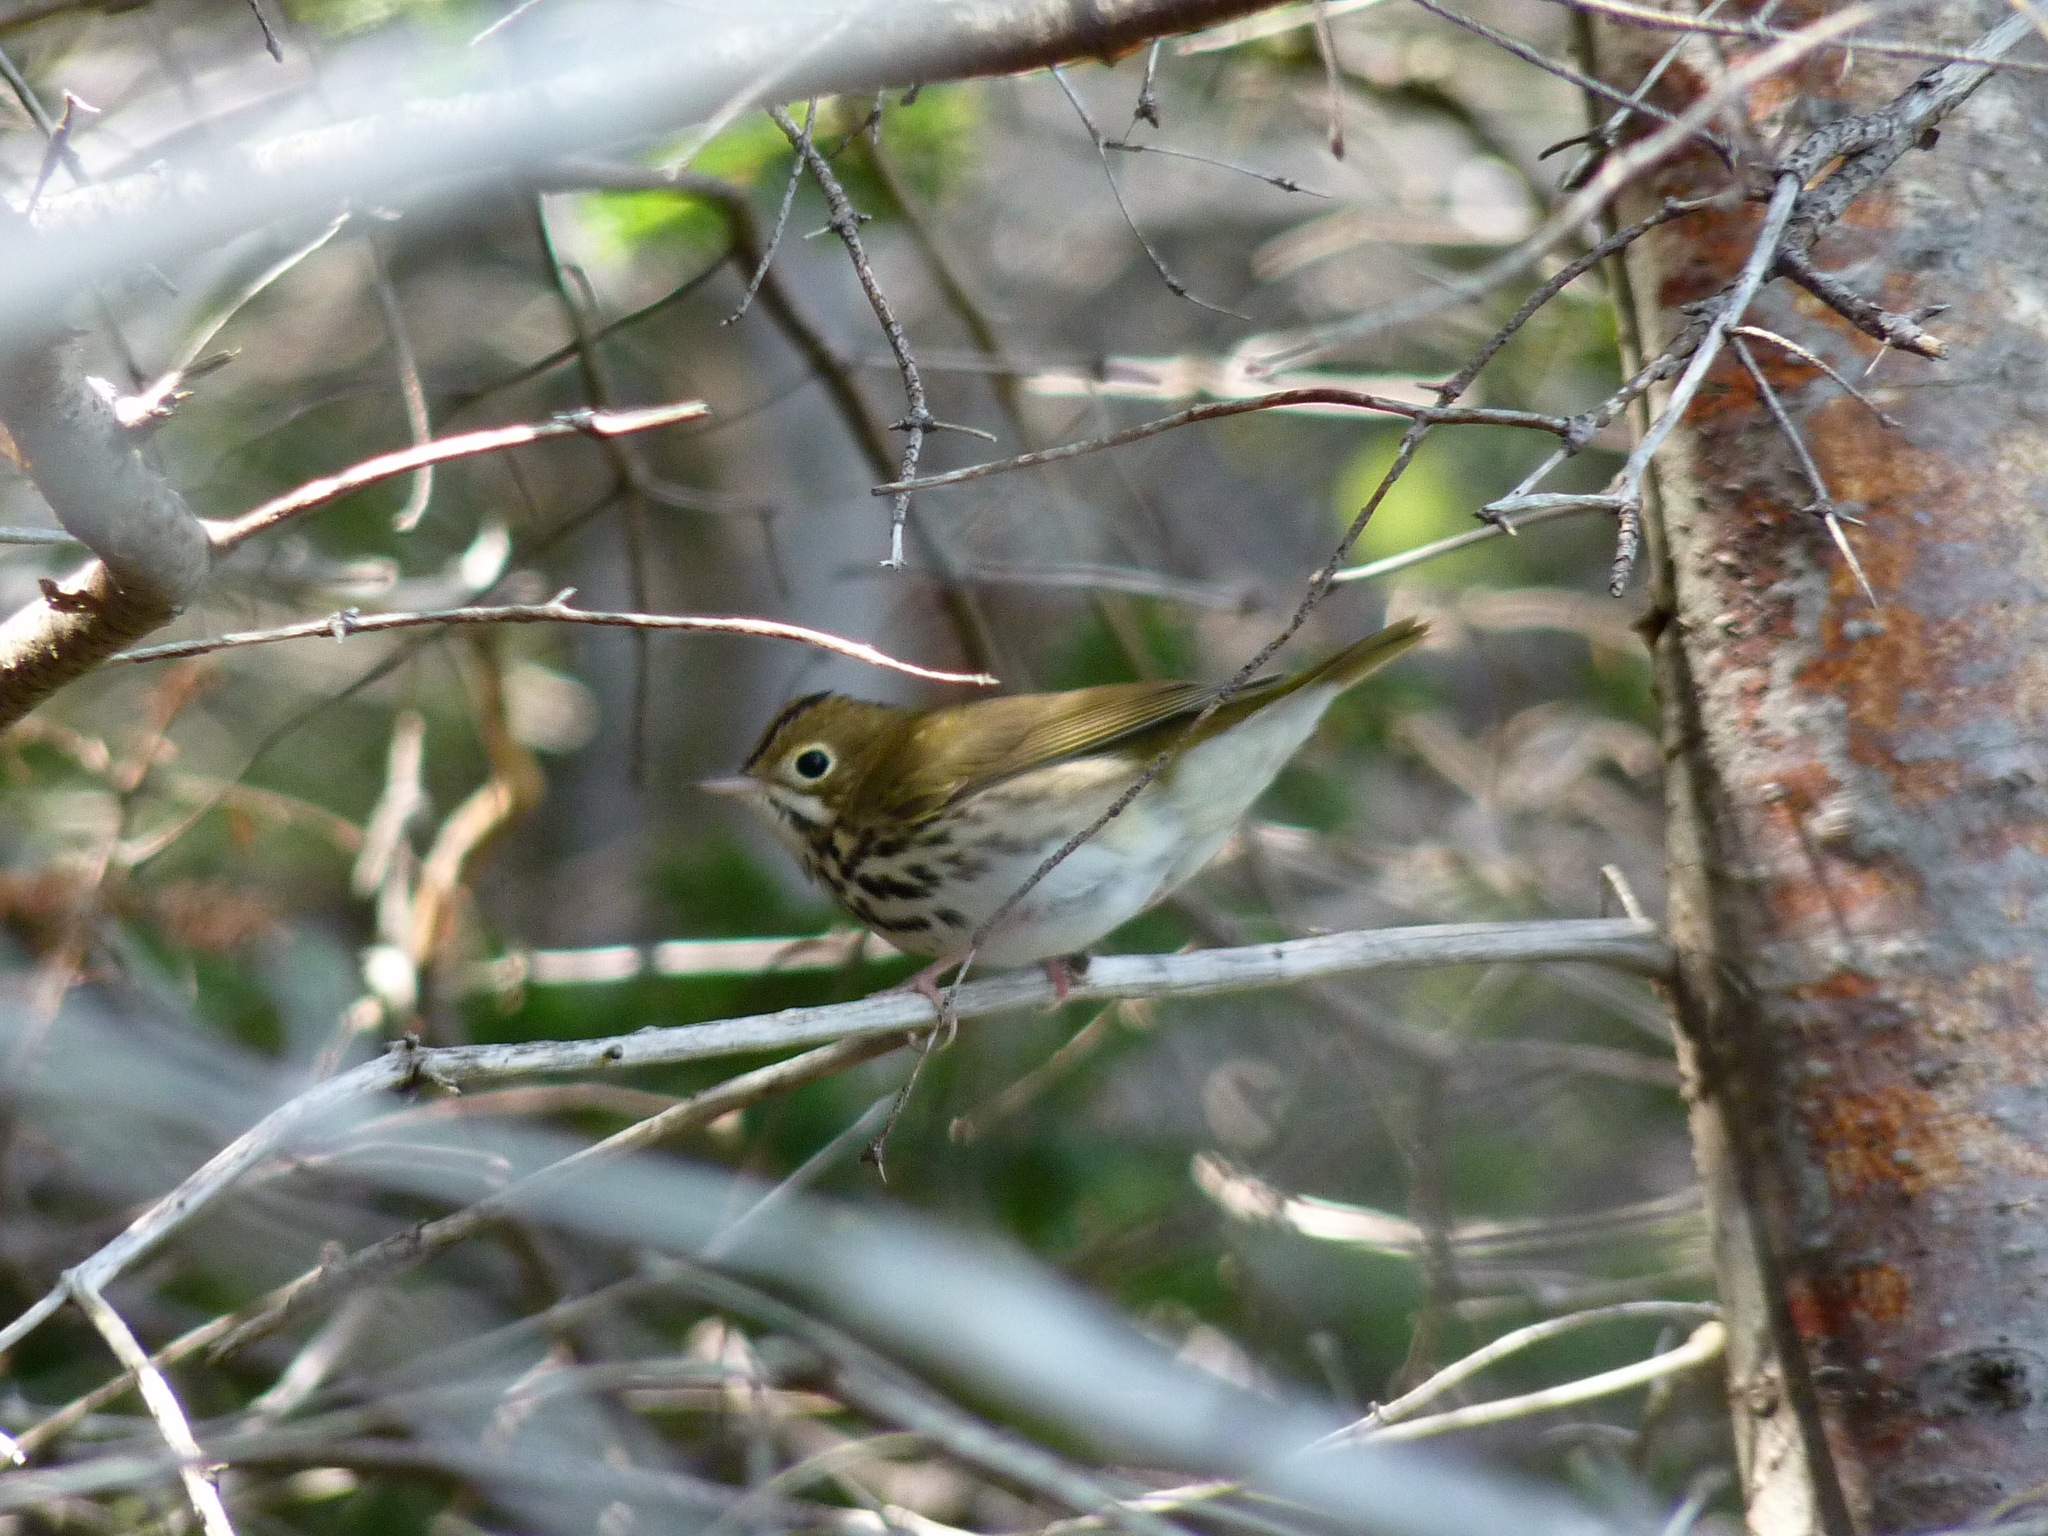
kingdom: Animalia
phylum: Chordata
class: Aves
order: Passeriformes
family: Parulidae
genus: Seiurus
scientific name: Seiurus aurocapilla
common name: Ovenbird
